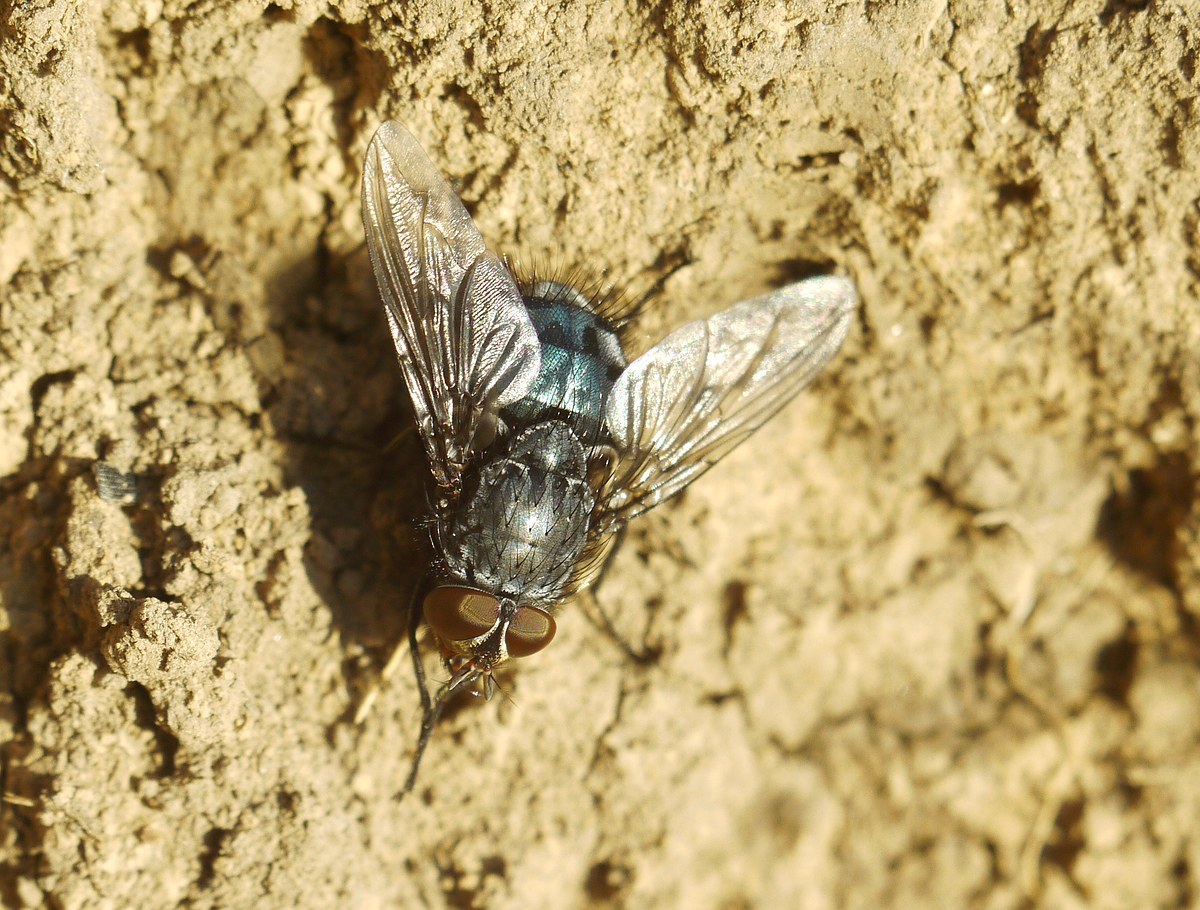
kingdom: Animalia
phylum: Arthropoda
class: Insecta
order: Diptera
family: Calliphoridae
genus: Calliphora
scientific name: Calliphora
